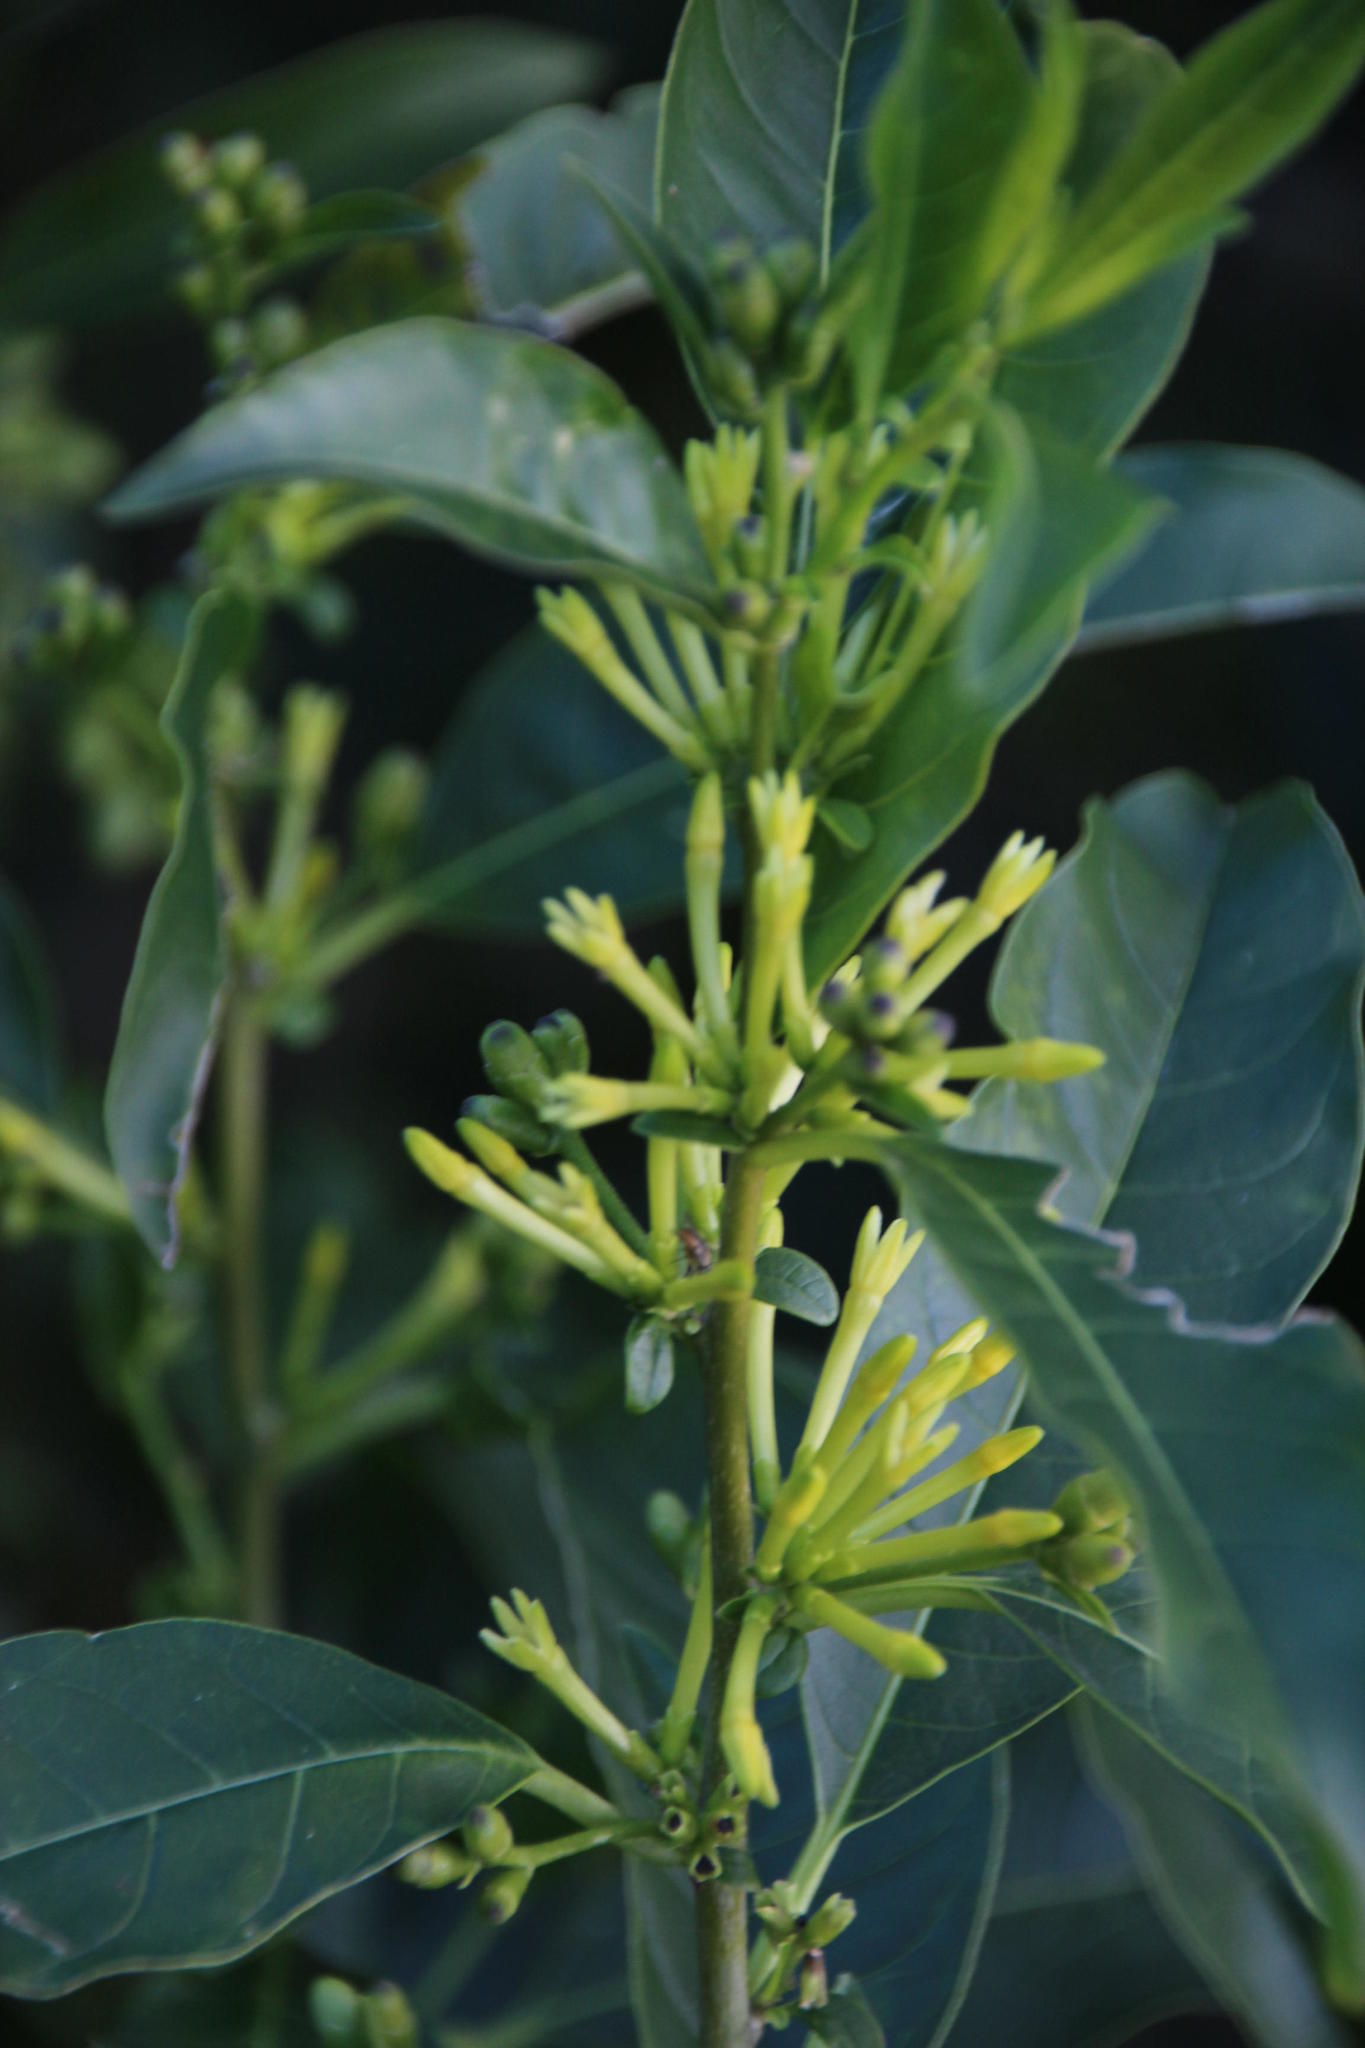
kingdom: Plantae
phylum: Tracheophyta
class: Magnoliopsida
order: Solanales
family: Solanaceae
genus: Cestrum
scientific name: Cestrum laevigatum
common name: Inkberry
